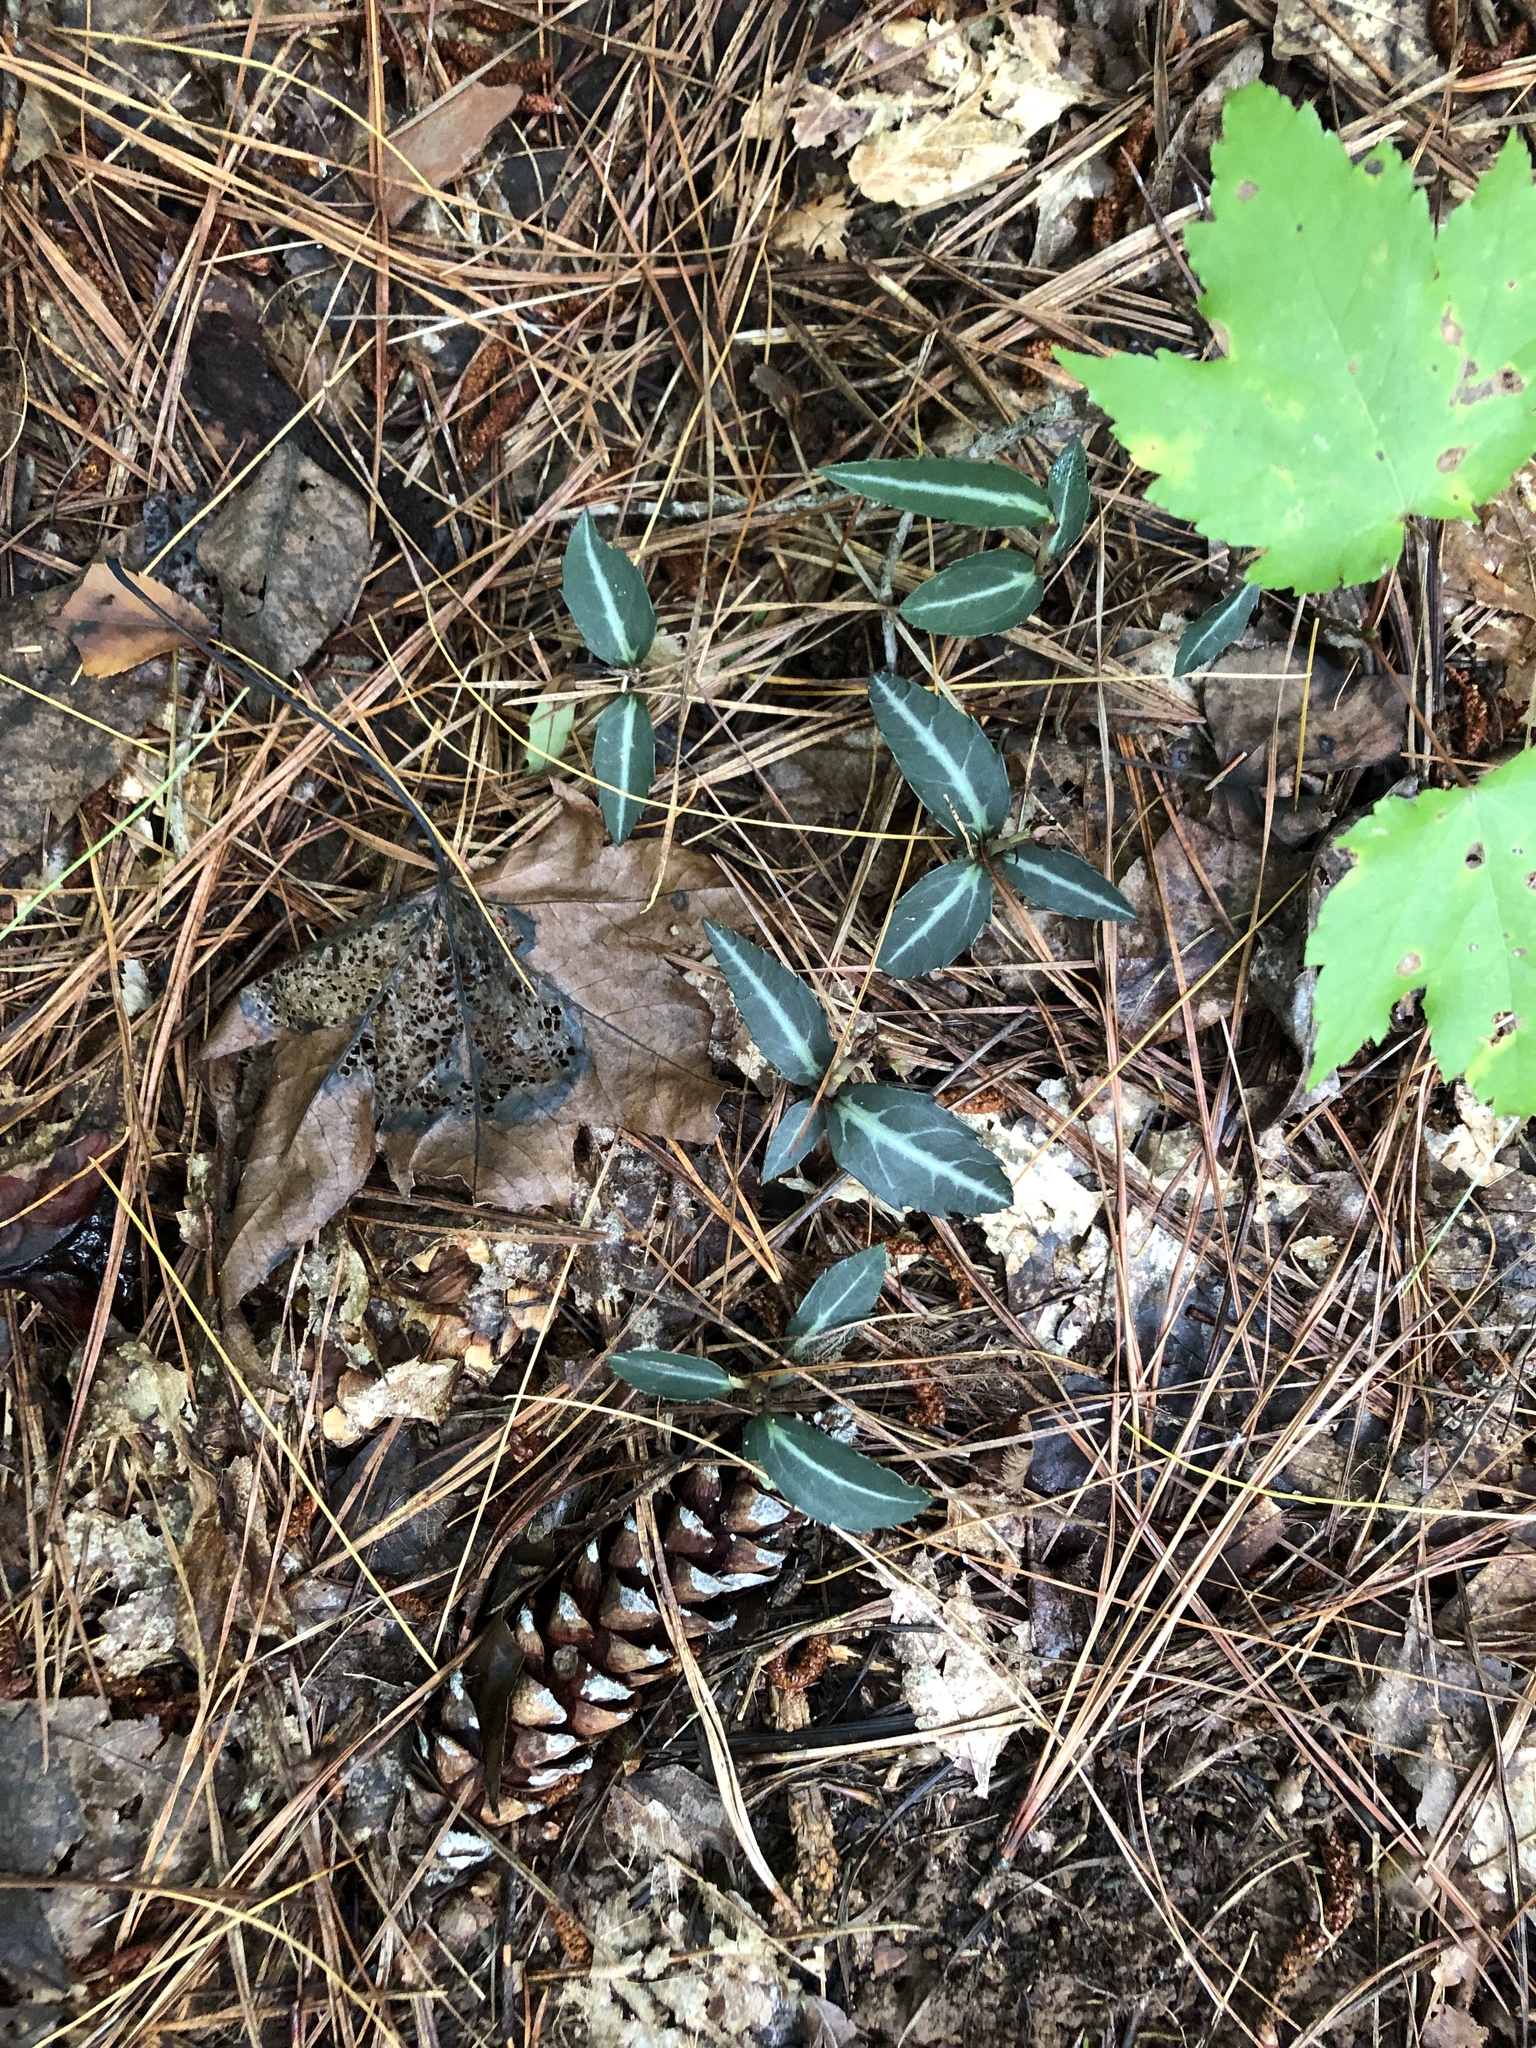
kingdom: Plantae
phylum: Tracheophyta
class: Magnoliopsida
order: Ericales
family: Ericaceae
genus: Chimaphila
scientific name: Chimaphila maculata
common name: Spotted pipsissewa
